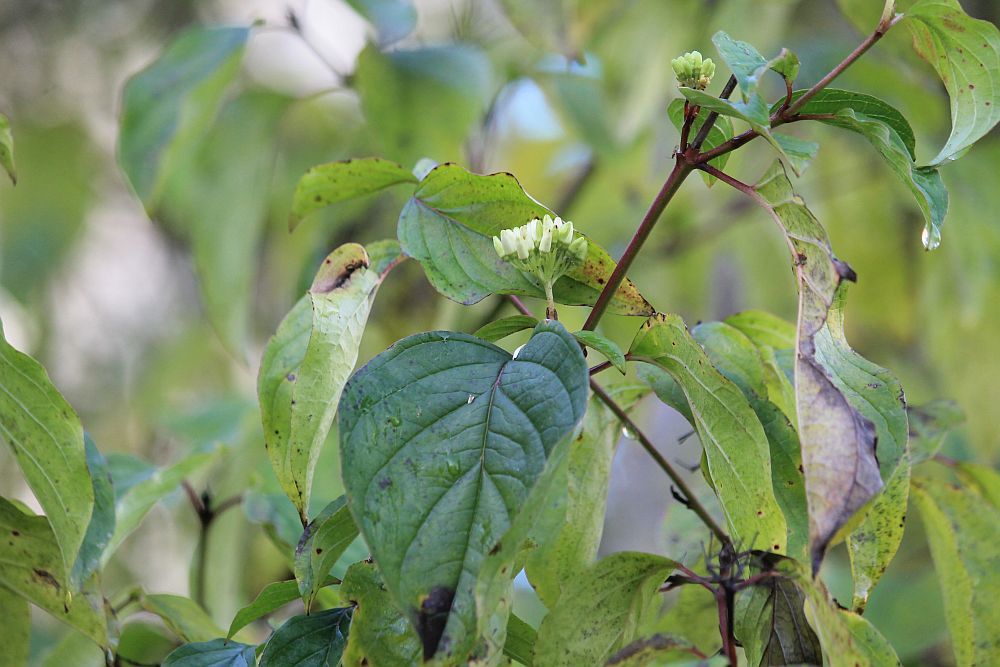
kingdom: Plantae
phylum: Tracheophyta
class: Magnoliopsida
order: Cornales
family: Cornaceae
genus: Cornus
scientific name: Cornus sanguinea
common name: Dogwood
